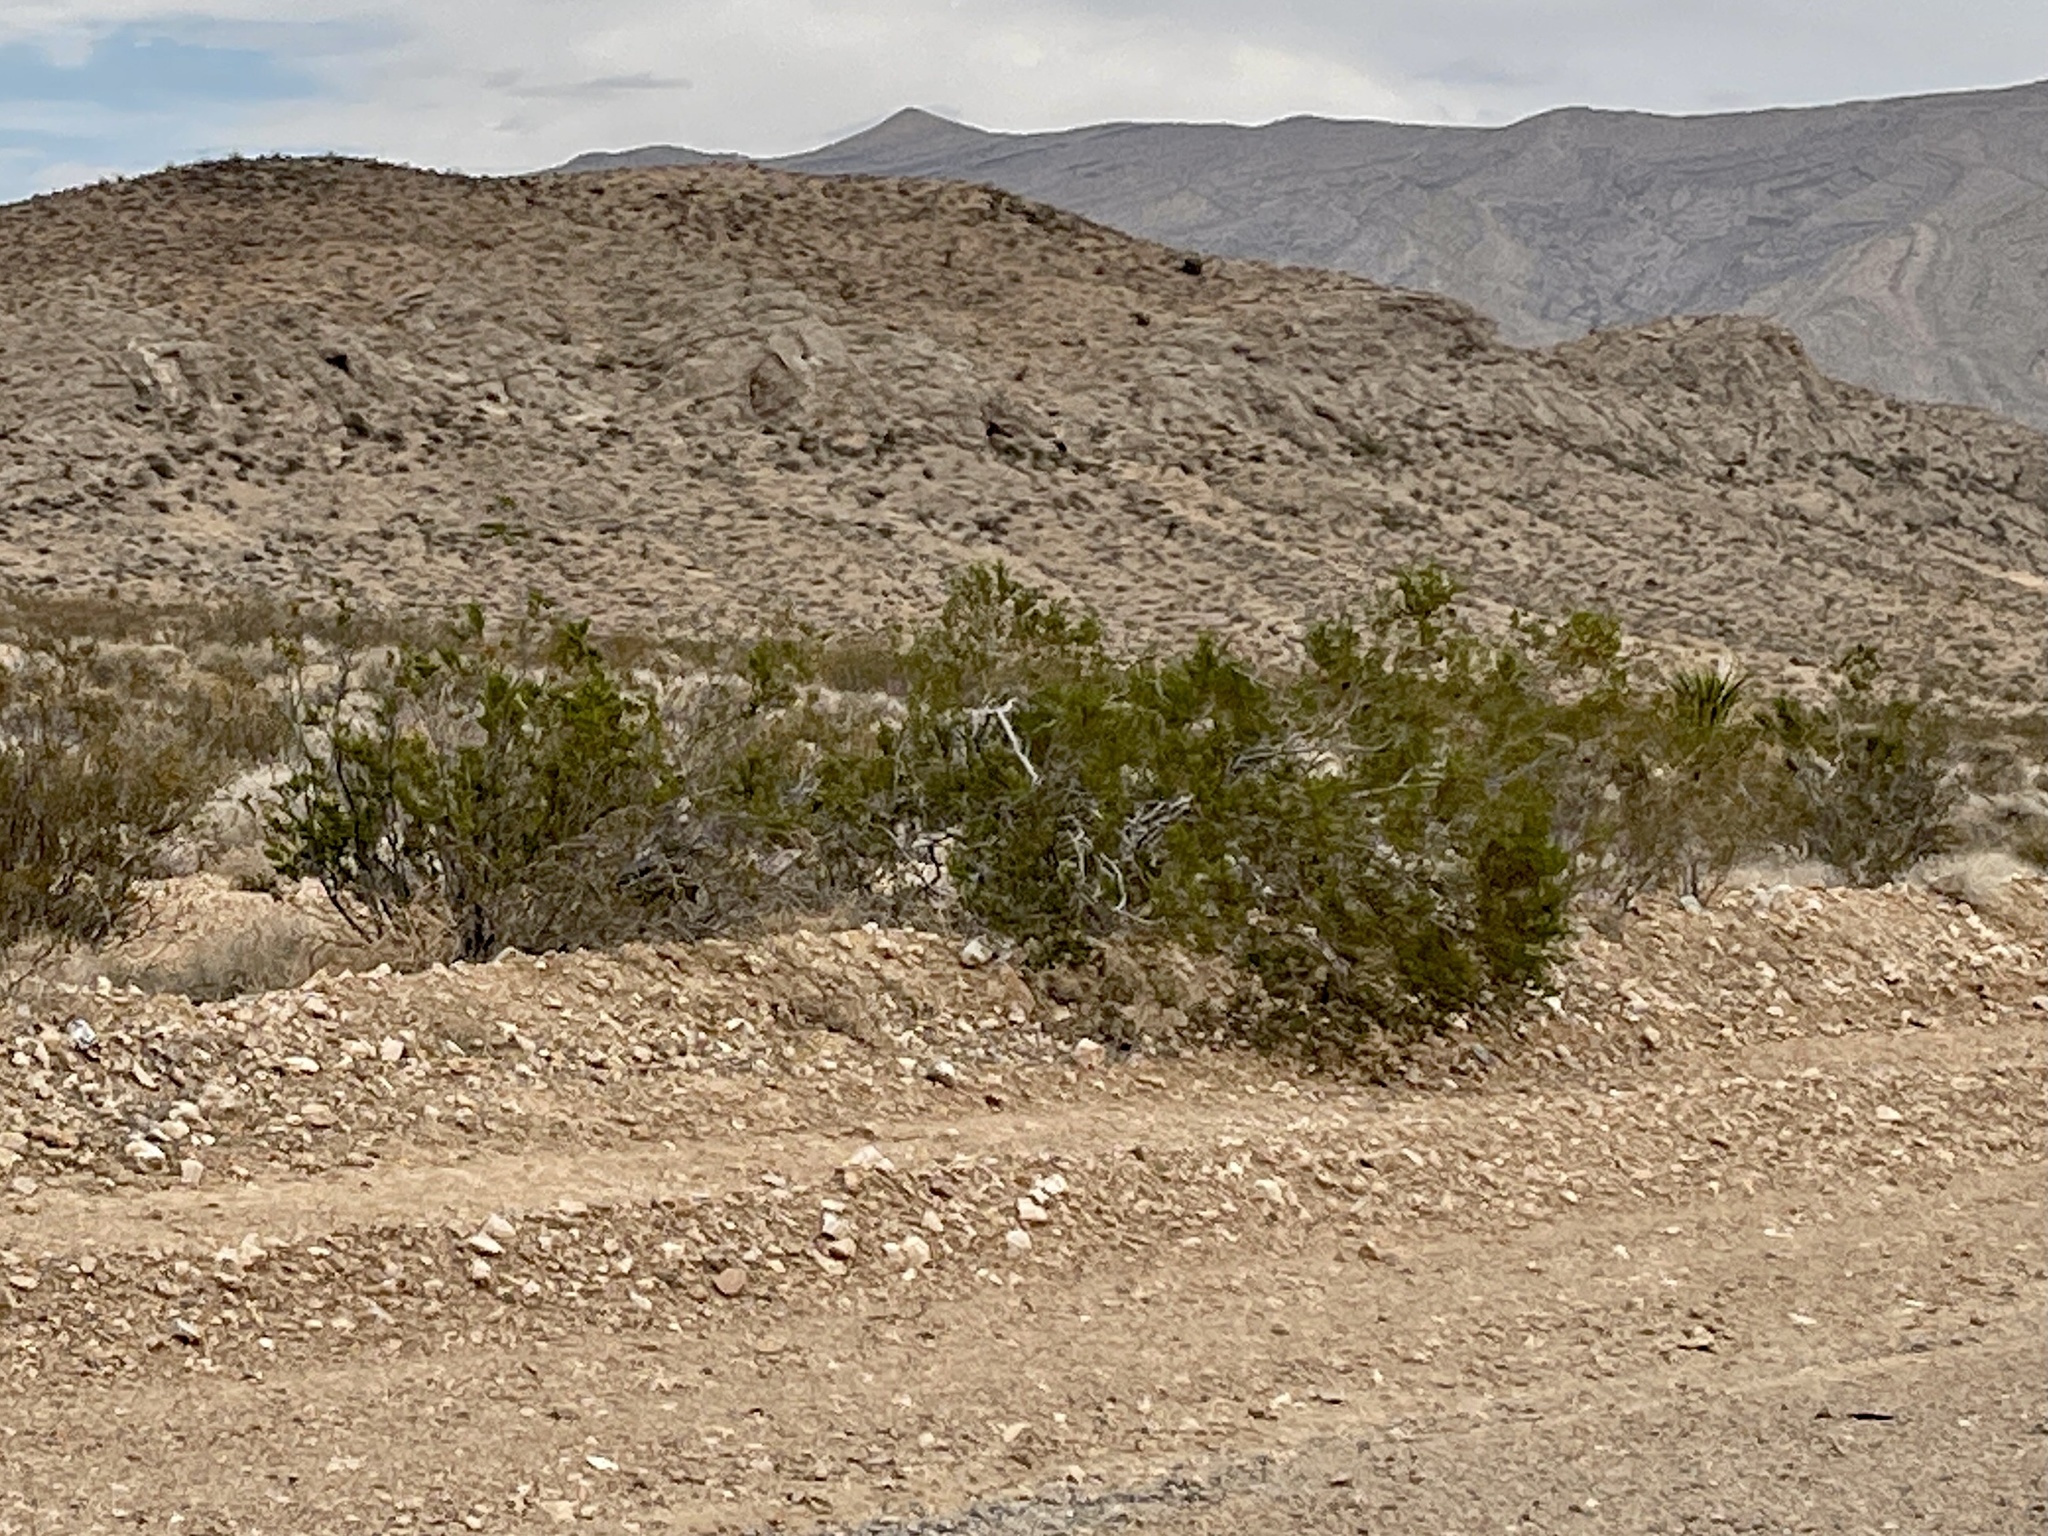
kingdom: Plantae
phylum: Tracheophyta
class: Magnoliopsida
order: Zygophyllales
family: Zygophyllaceae
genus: Larrea
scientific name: Larrea tridentata
